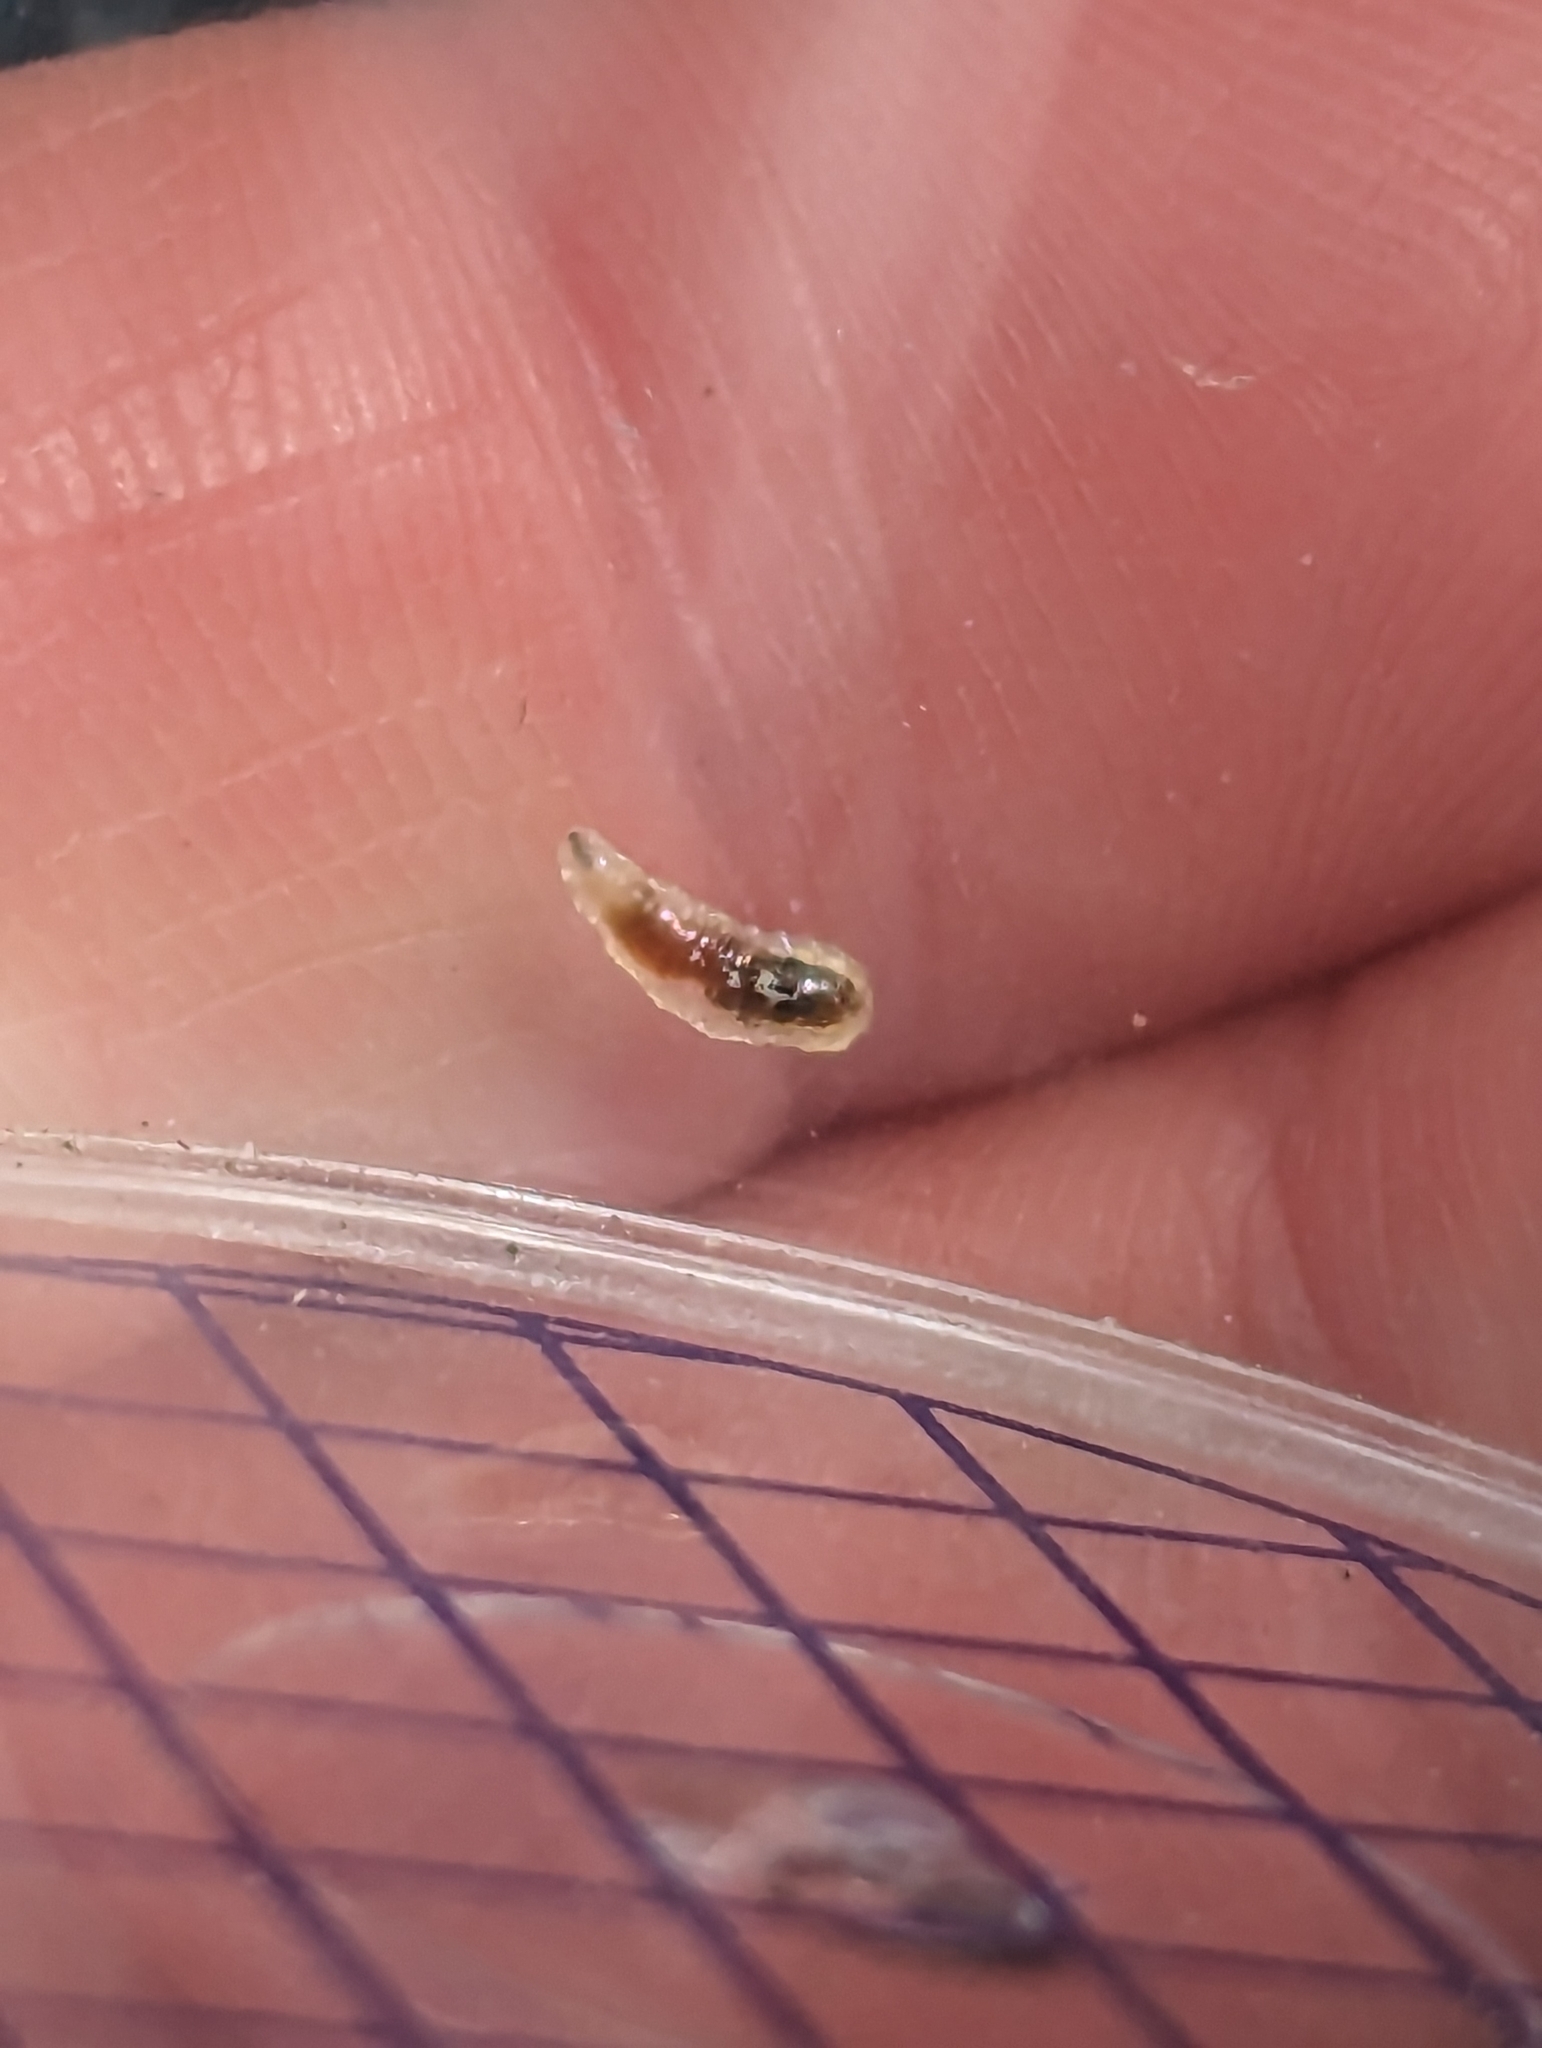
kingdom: Animalia
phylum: Arthropoda
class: Insecta
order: Diptera
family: Syrphidae
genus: Episyrphus
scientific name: Episyrphus balteatus
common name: Marmalade hoverfly
